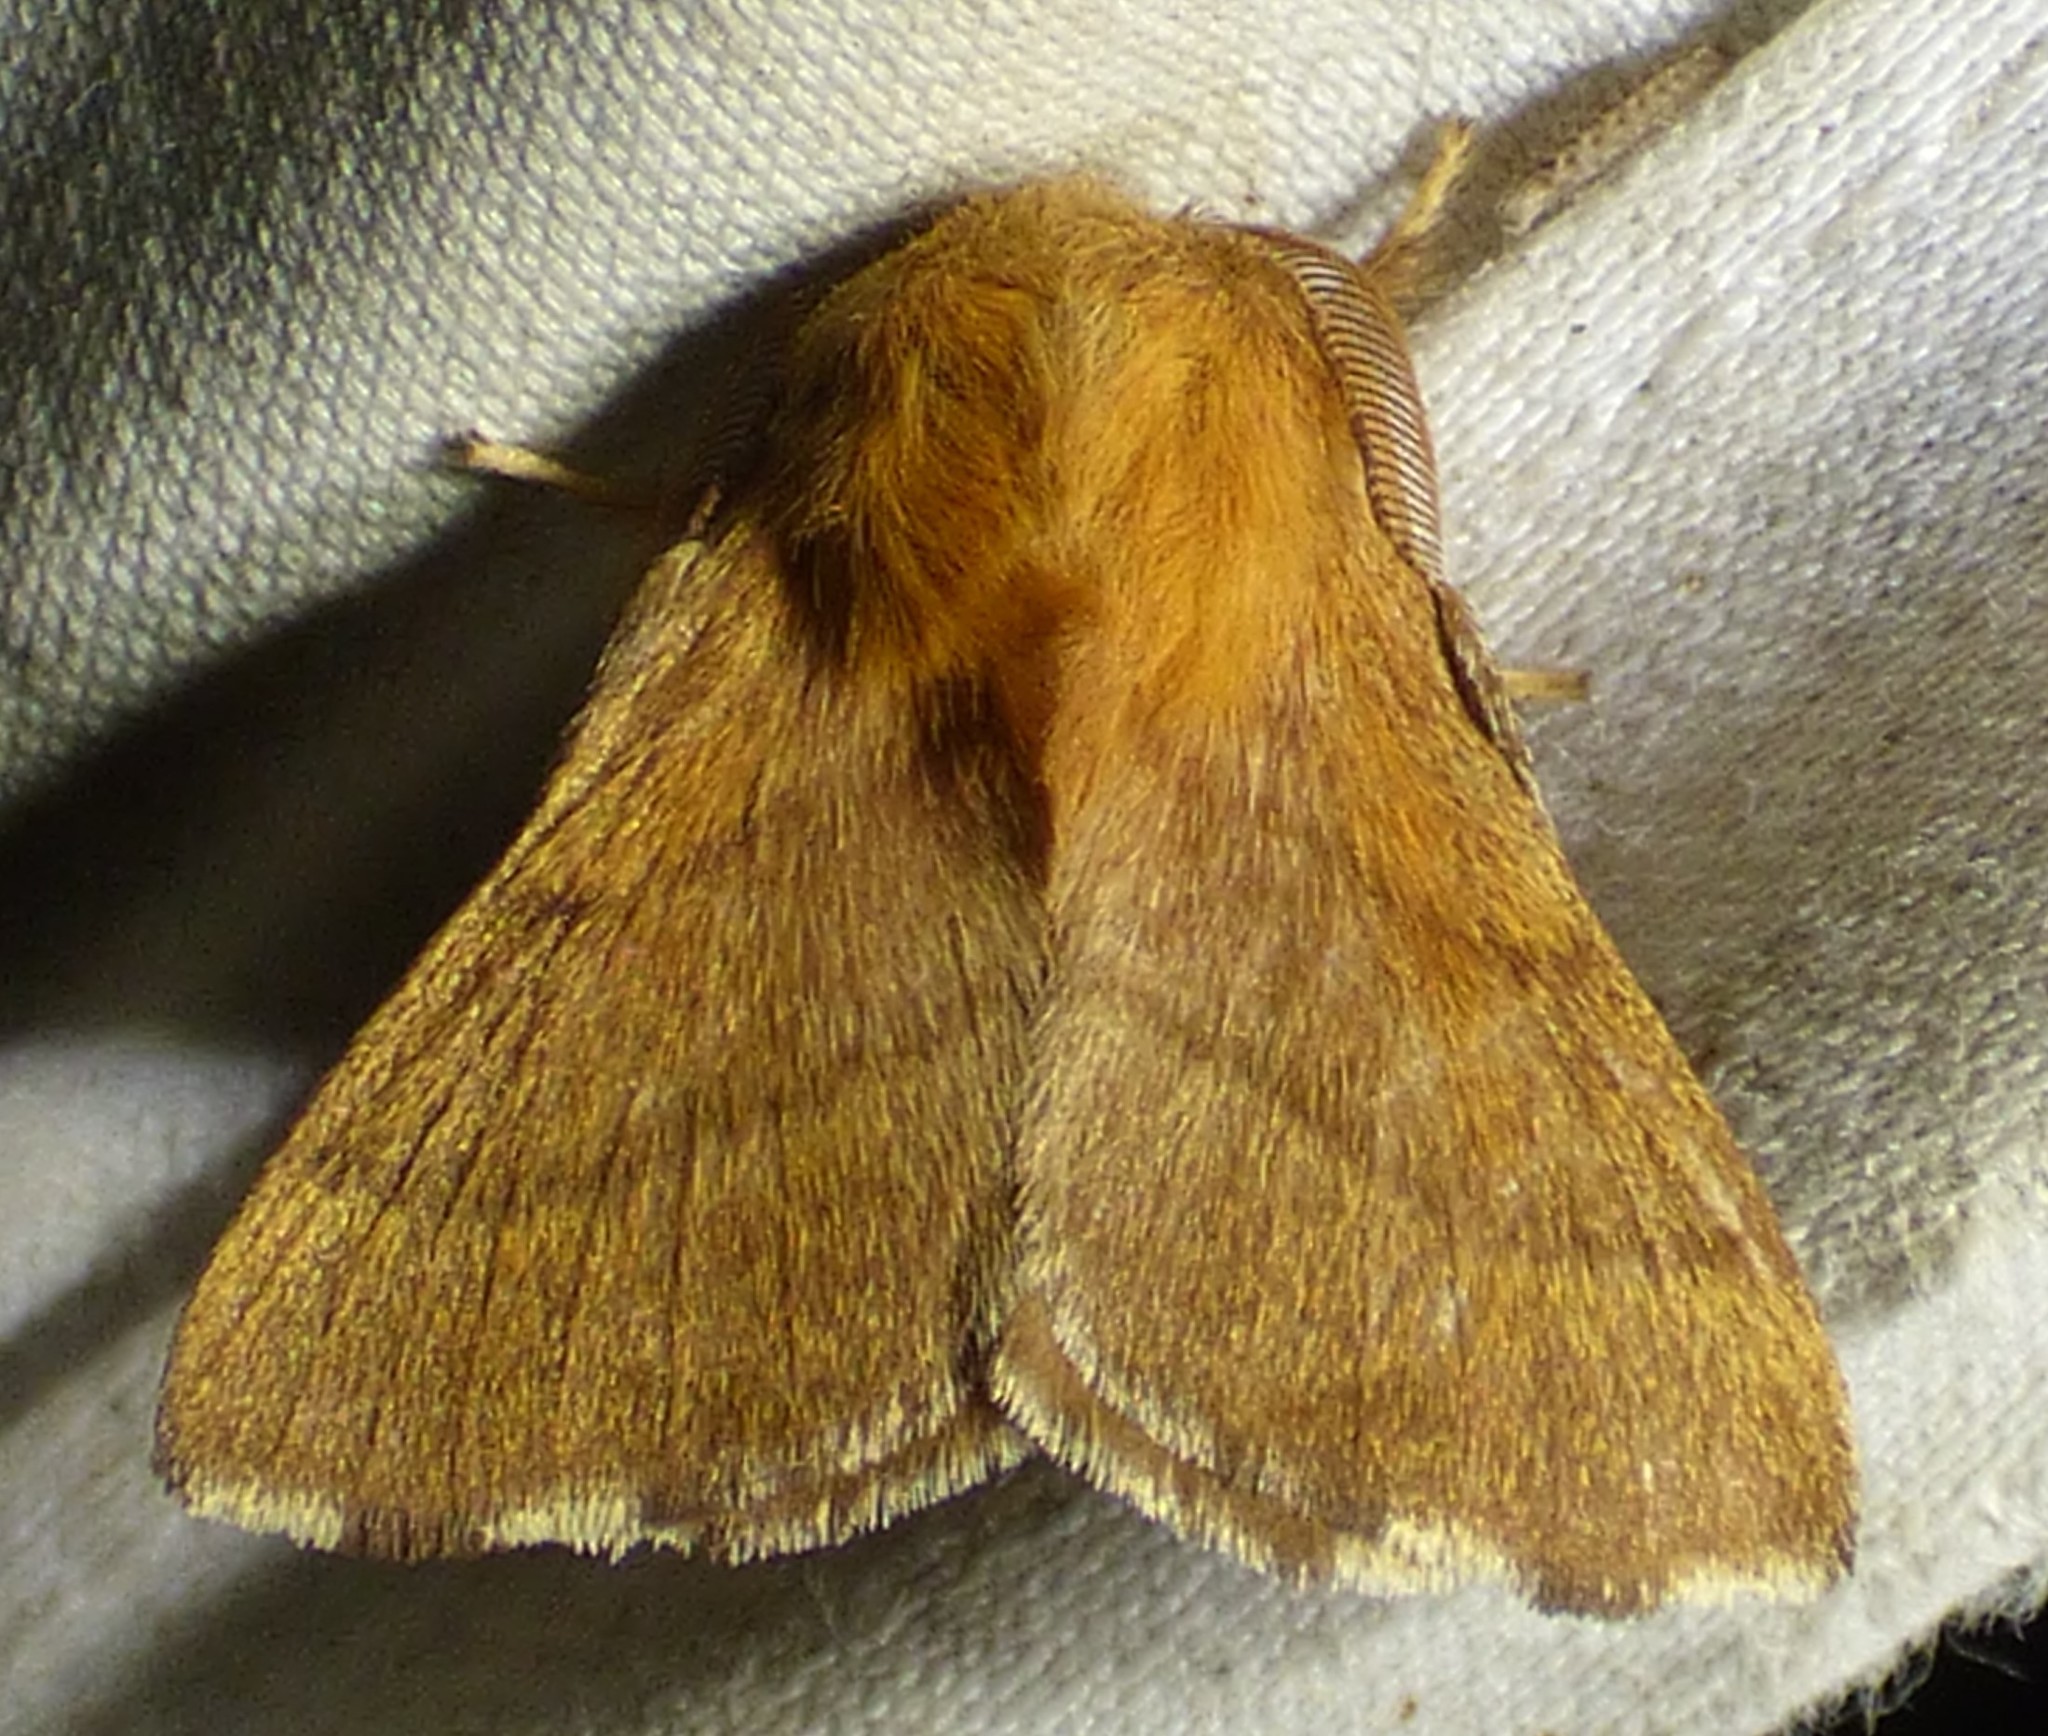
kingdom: Animalia
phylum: Arthropoda
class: Insecta
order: Lepidoptera
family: Lasiocampidae
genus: Malacosoma
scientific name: Malacosoma disstria
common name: Forest tent caterpillar
